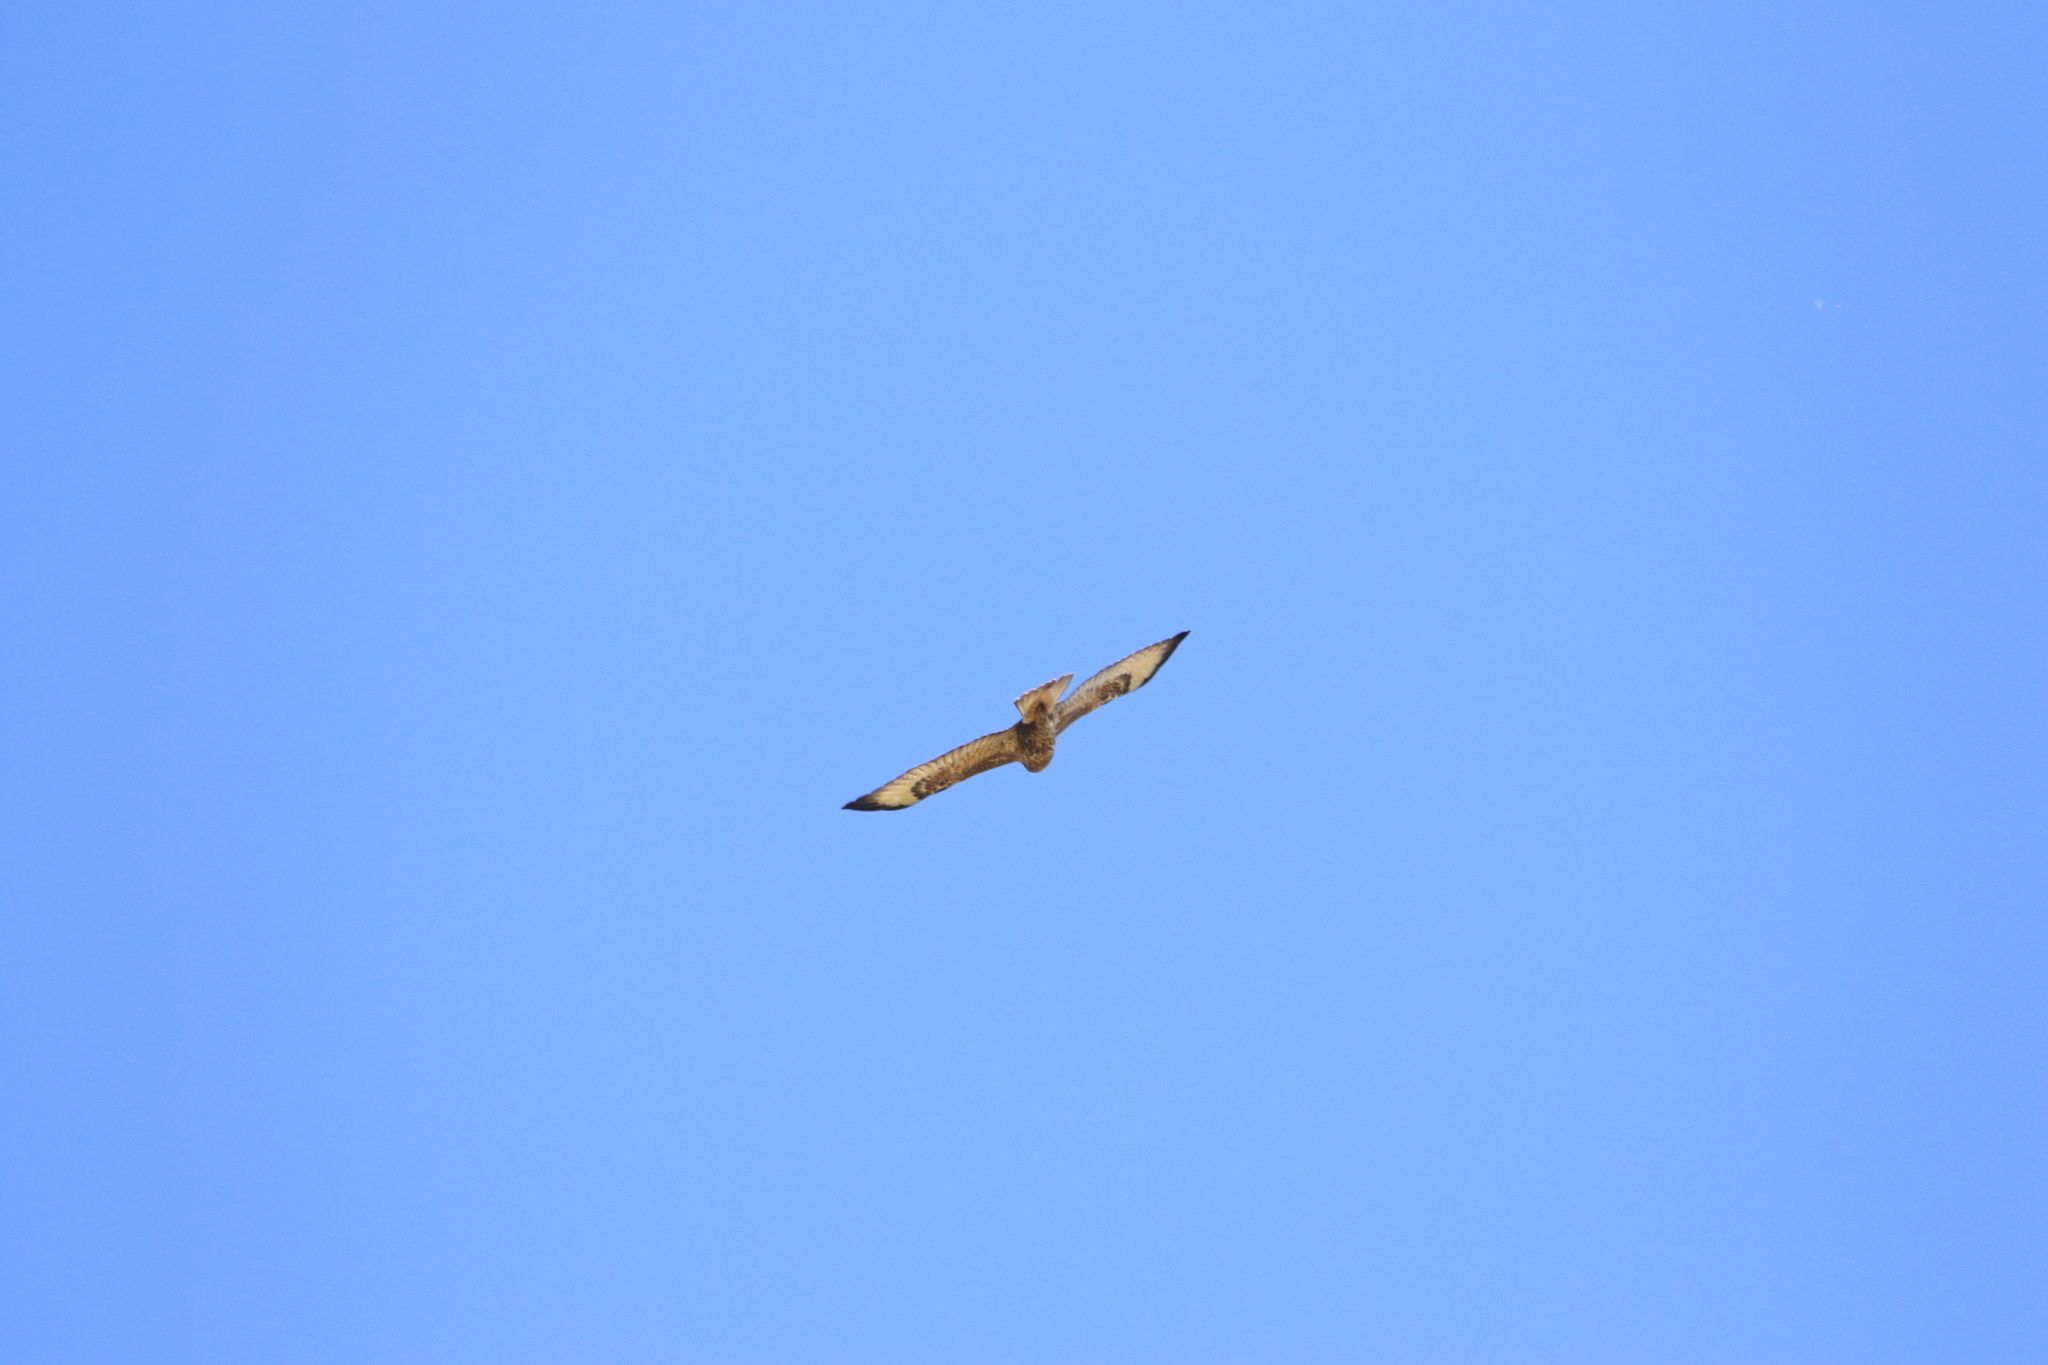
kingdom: Animalia
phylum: Chordata
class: Aves
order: Accipitriformes
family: Accipitridae
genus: Buteo
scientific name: Buteo buteo
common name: Common buzzard
